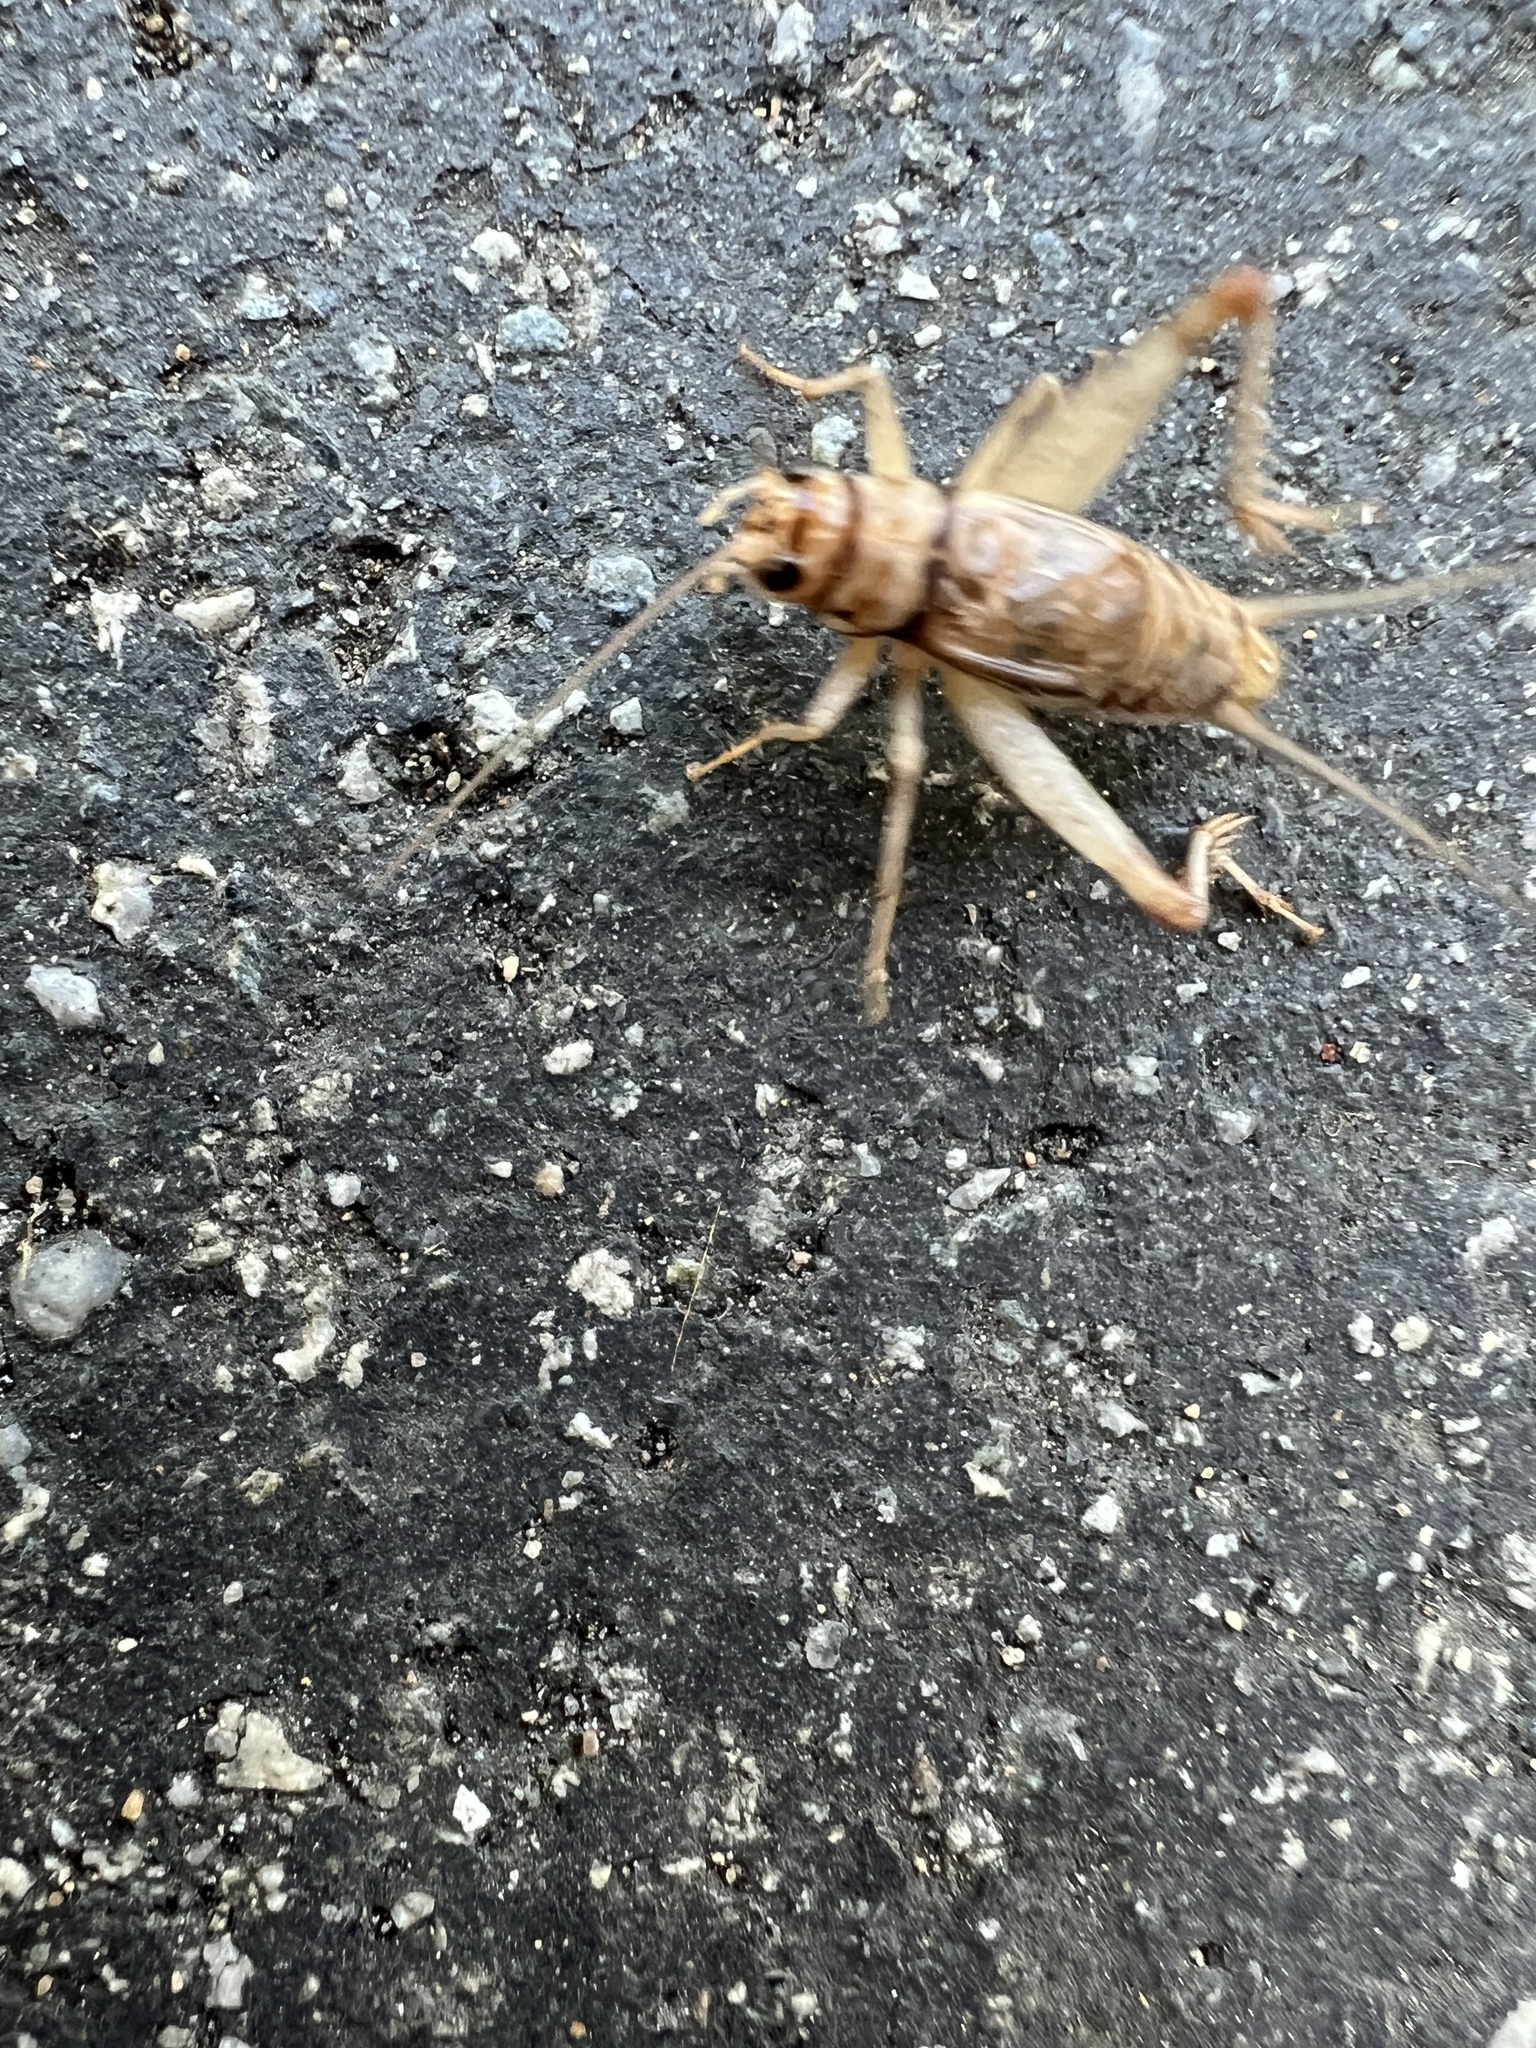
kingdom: Animalia
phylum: Arthropoda
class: Insecta
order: Orthoptera
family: Gryllidae
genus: Gryllodes
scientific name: Gryllodes sigillatus
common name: Tropical house cricket
